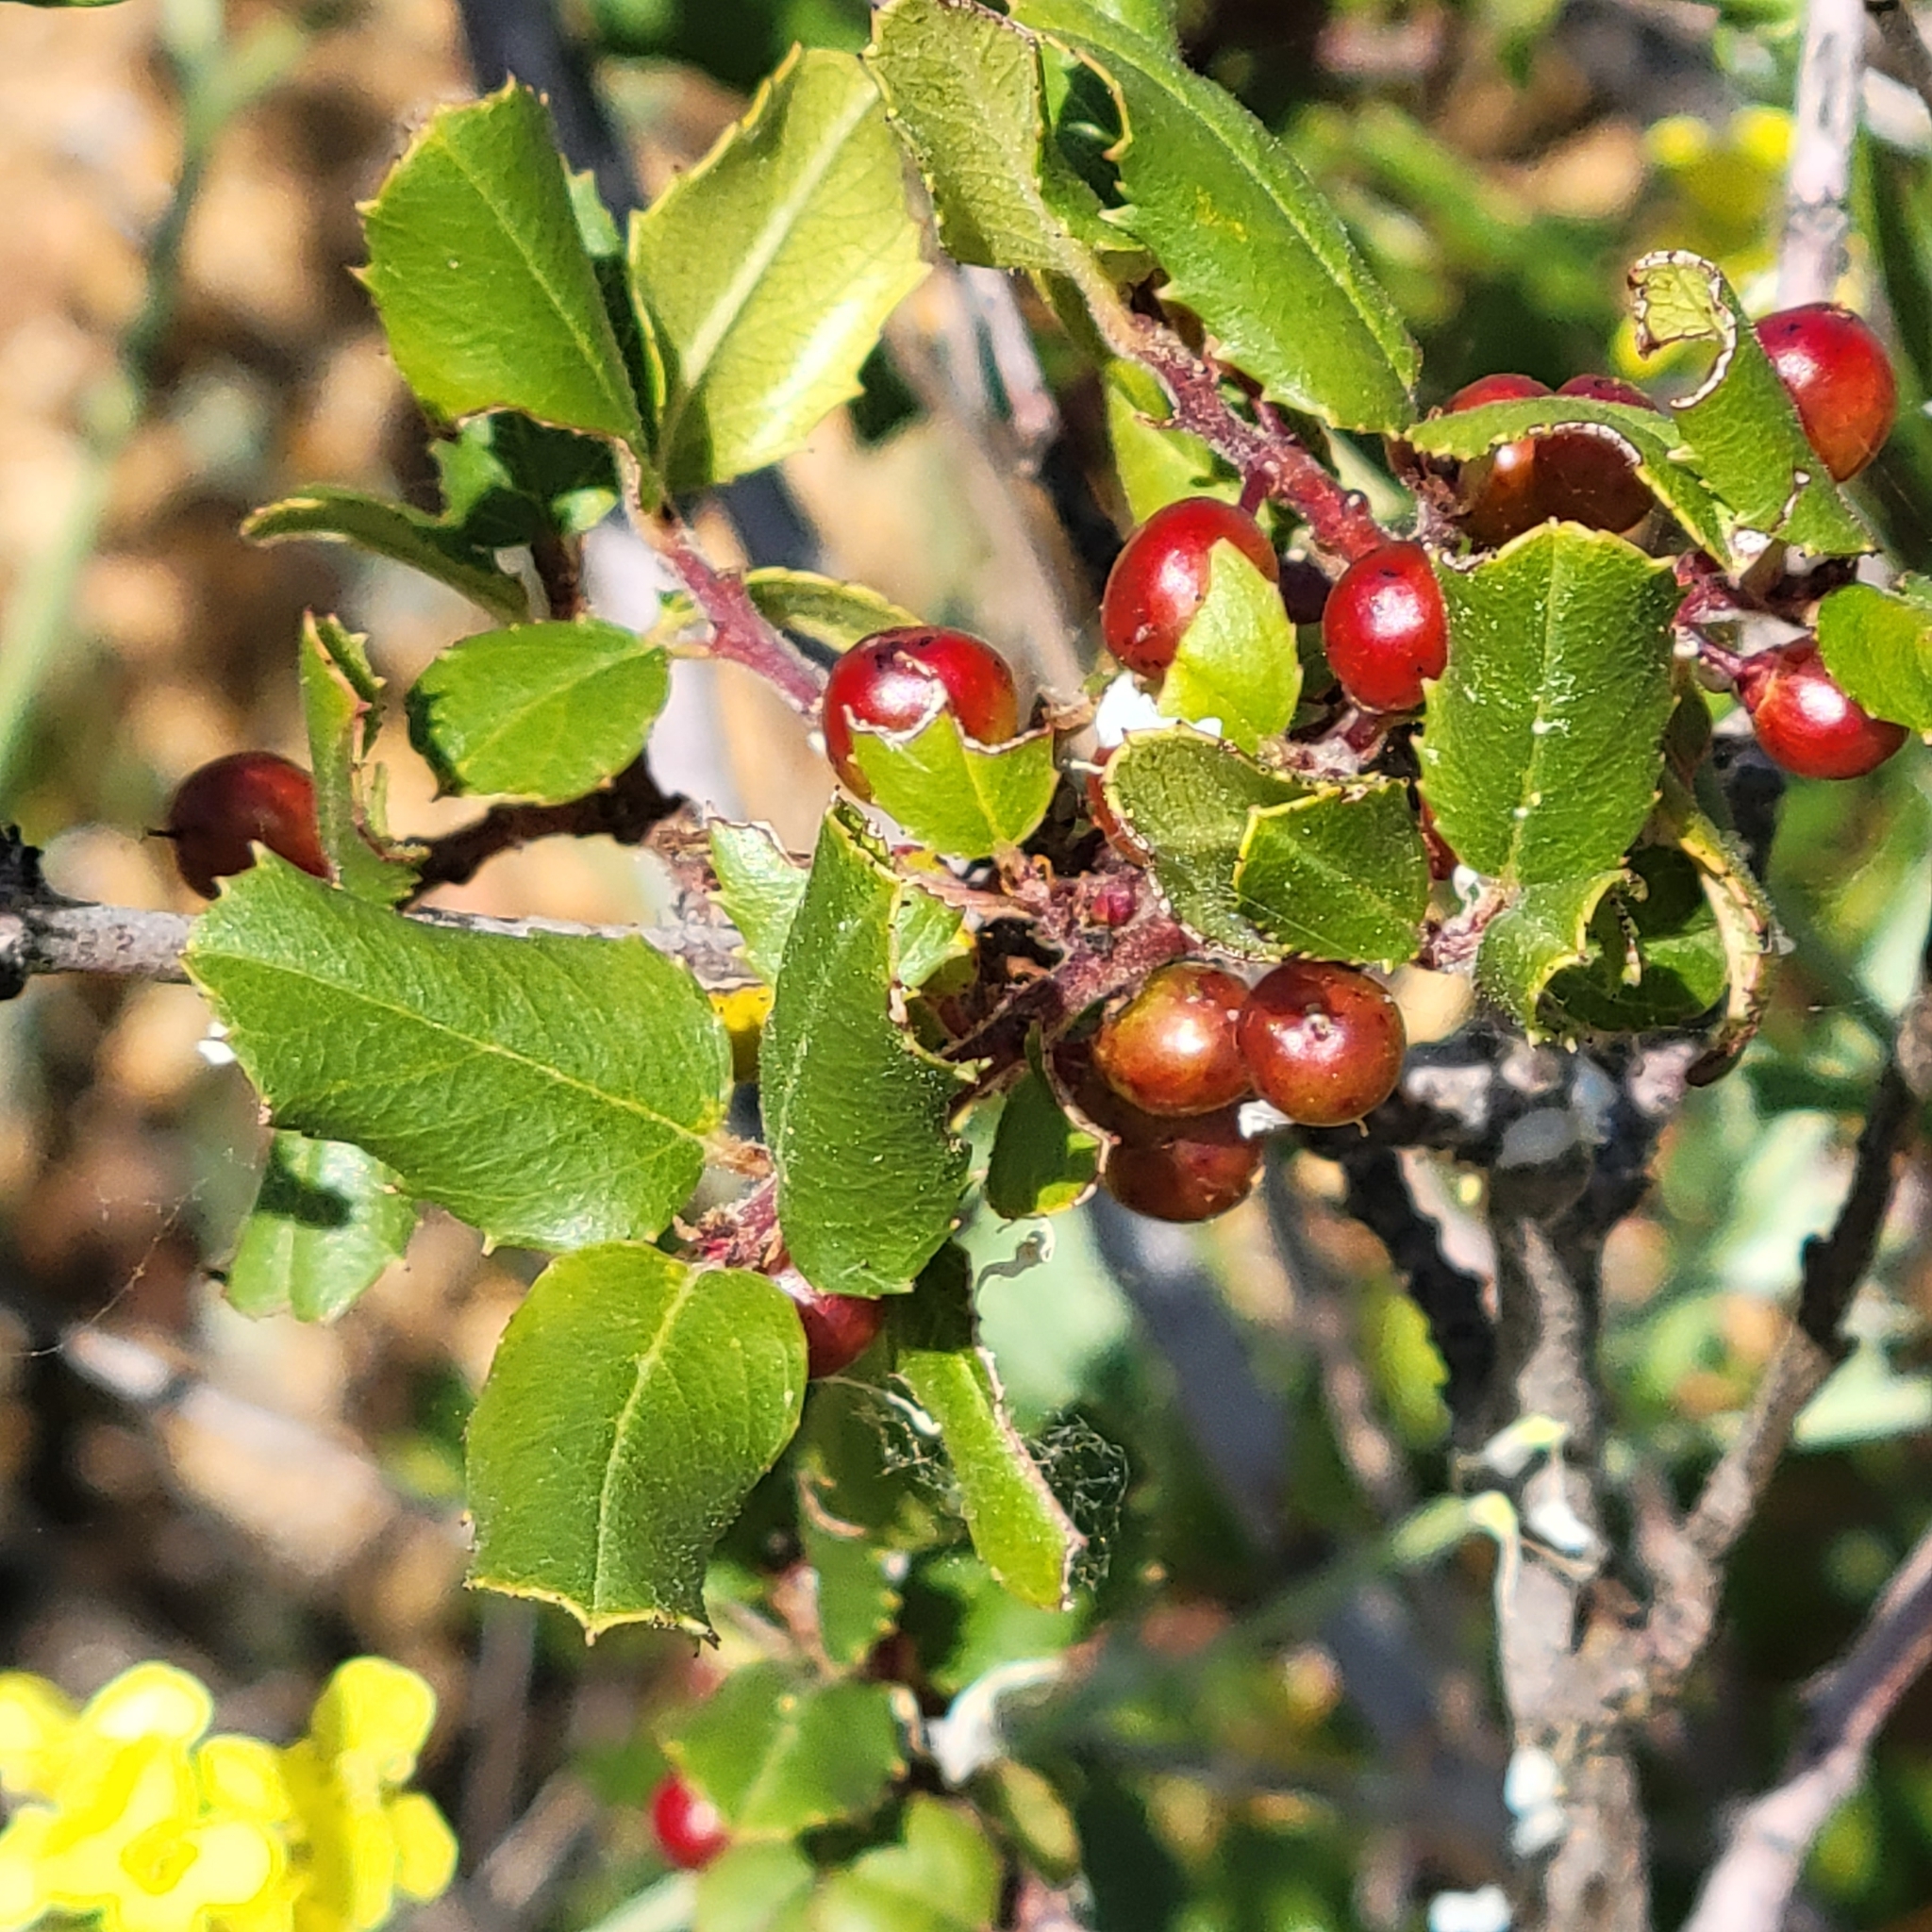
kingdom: Plantae
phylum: Tracheophyta
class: Magnoliopsida
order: Rosales
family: Rhamnaceae
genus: Endotropis
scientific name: Endotropis crocea
